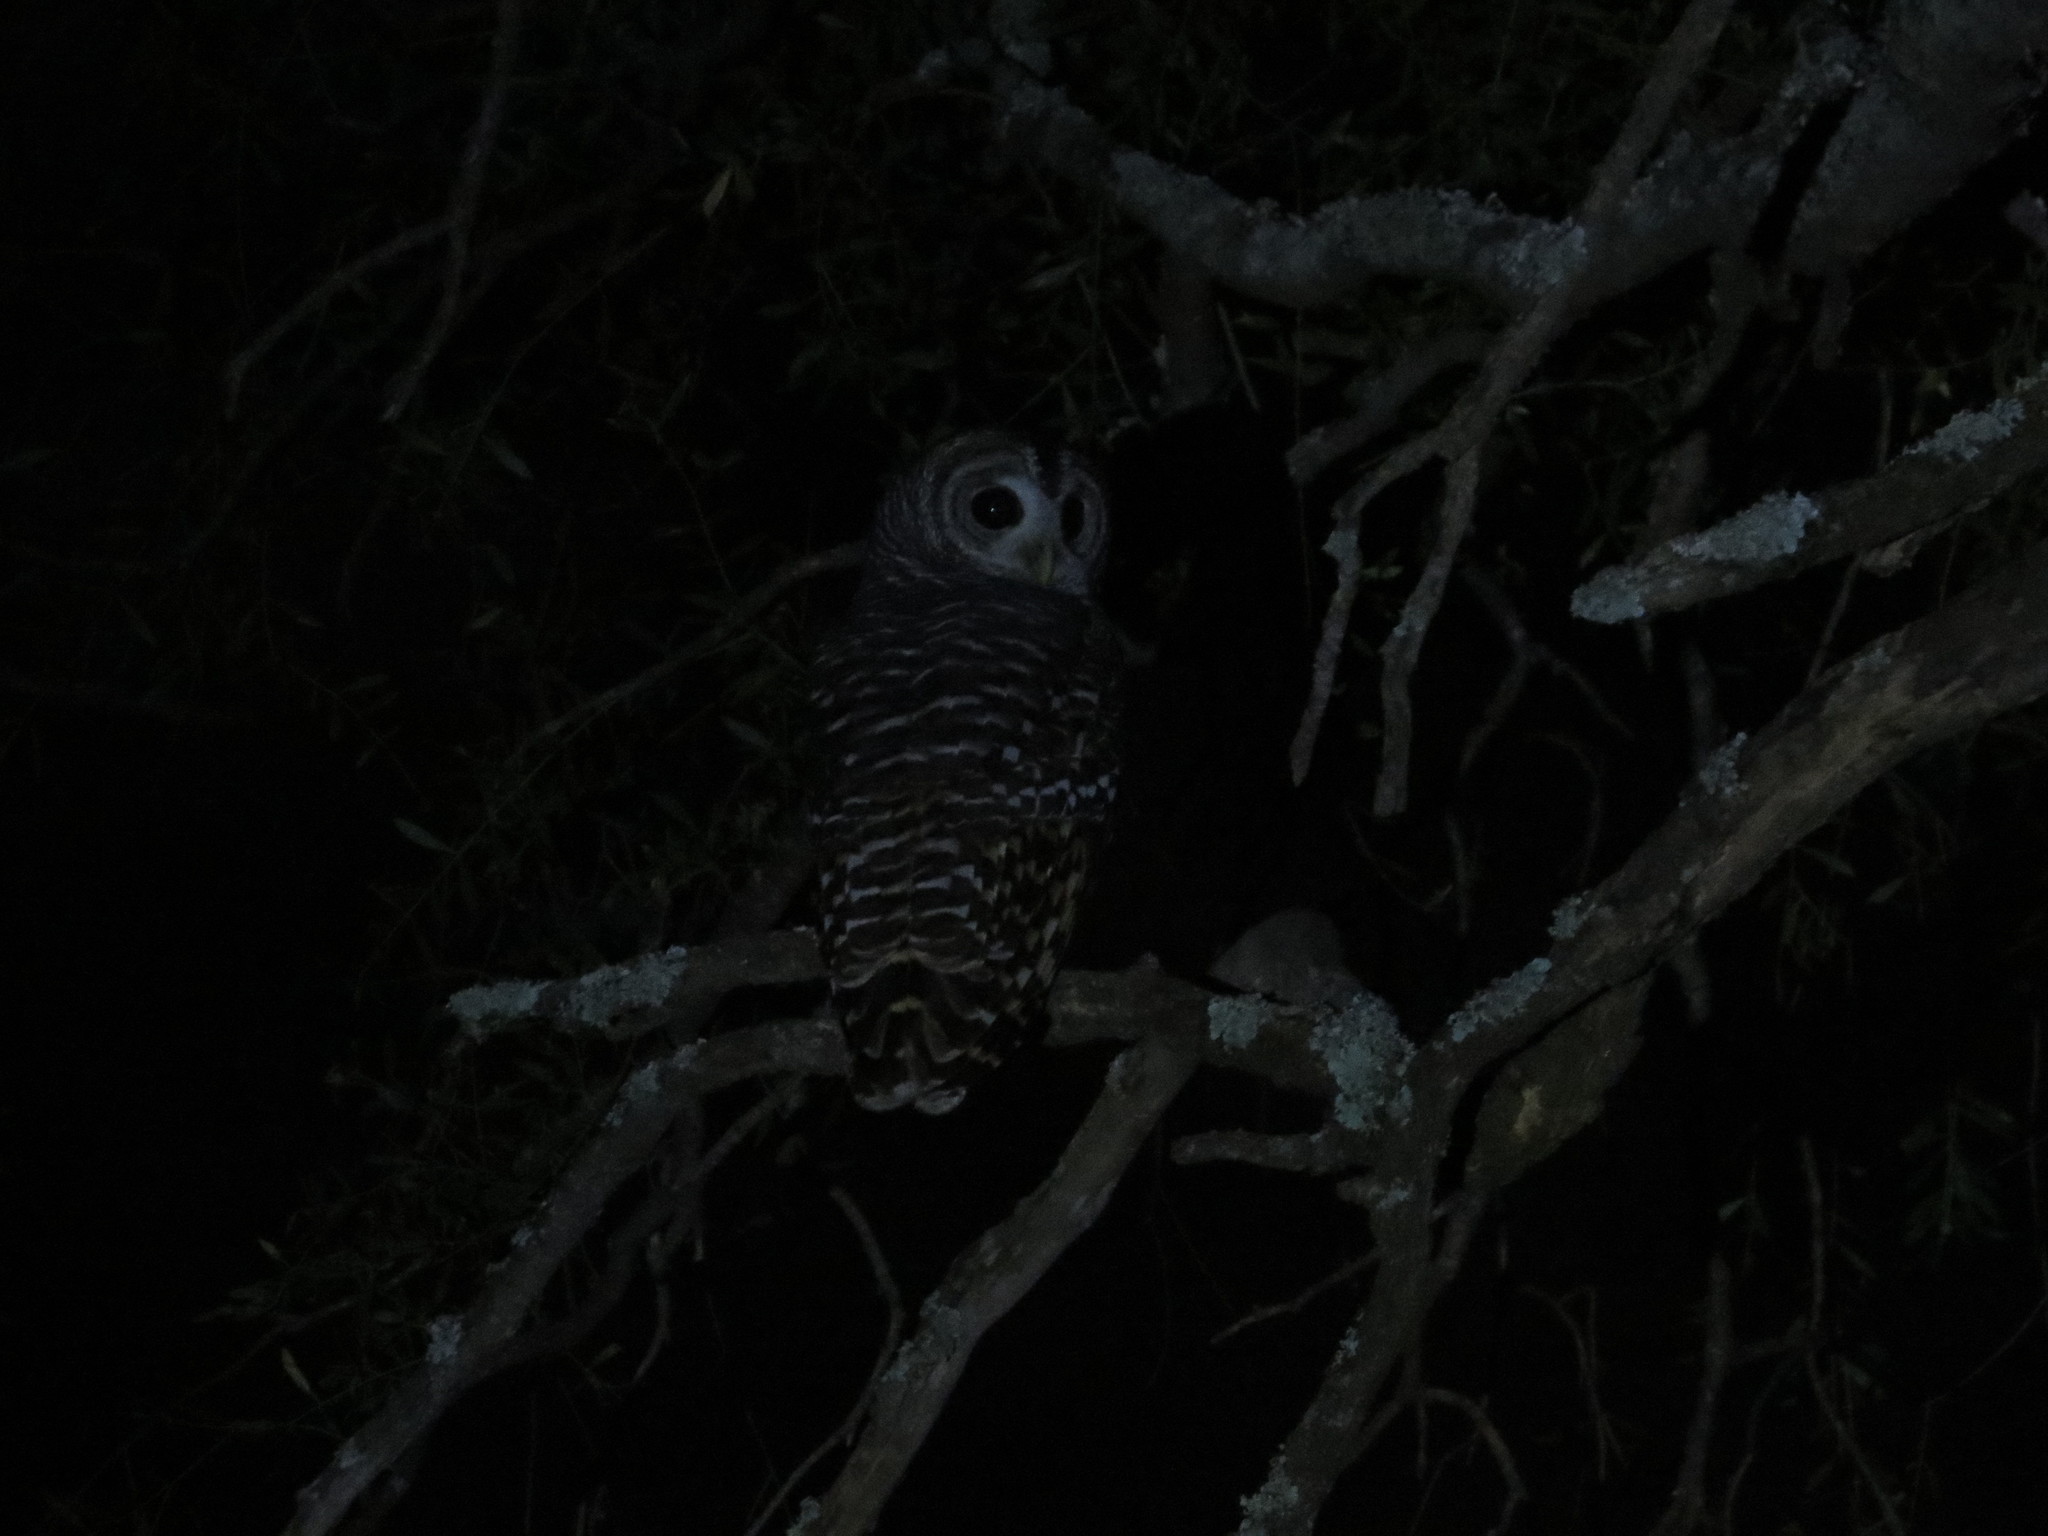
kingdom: Animalia
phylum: Chordata
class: Aves
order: Strigiformes
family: Strigidae
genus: Strix
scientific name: Strix chacoensis
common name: Chaco owl
